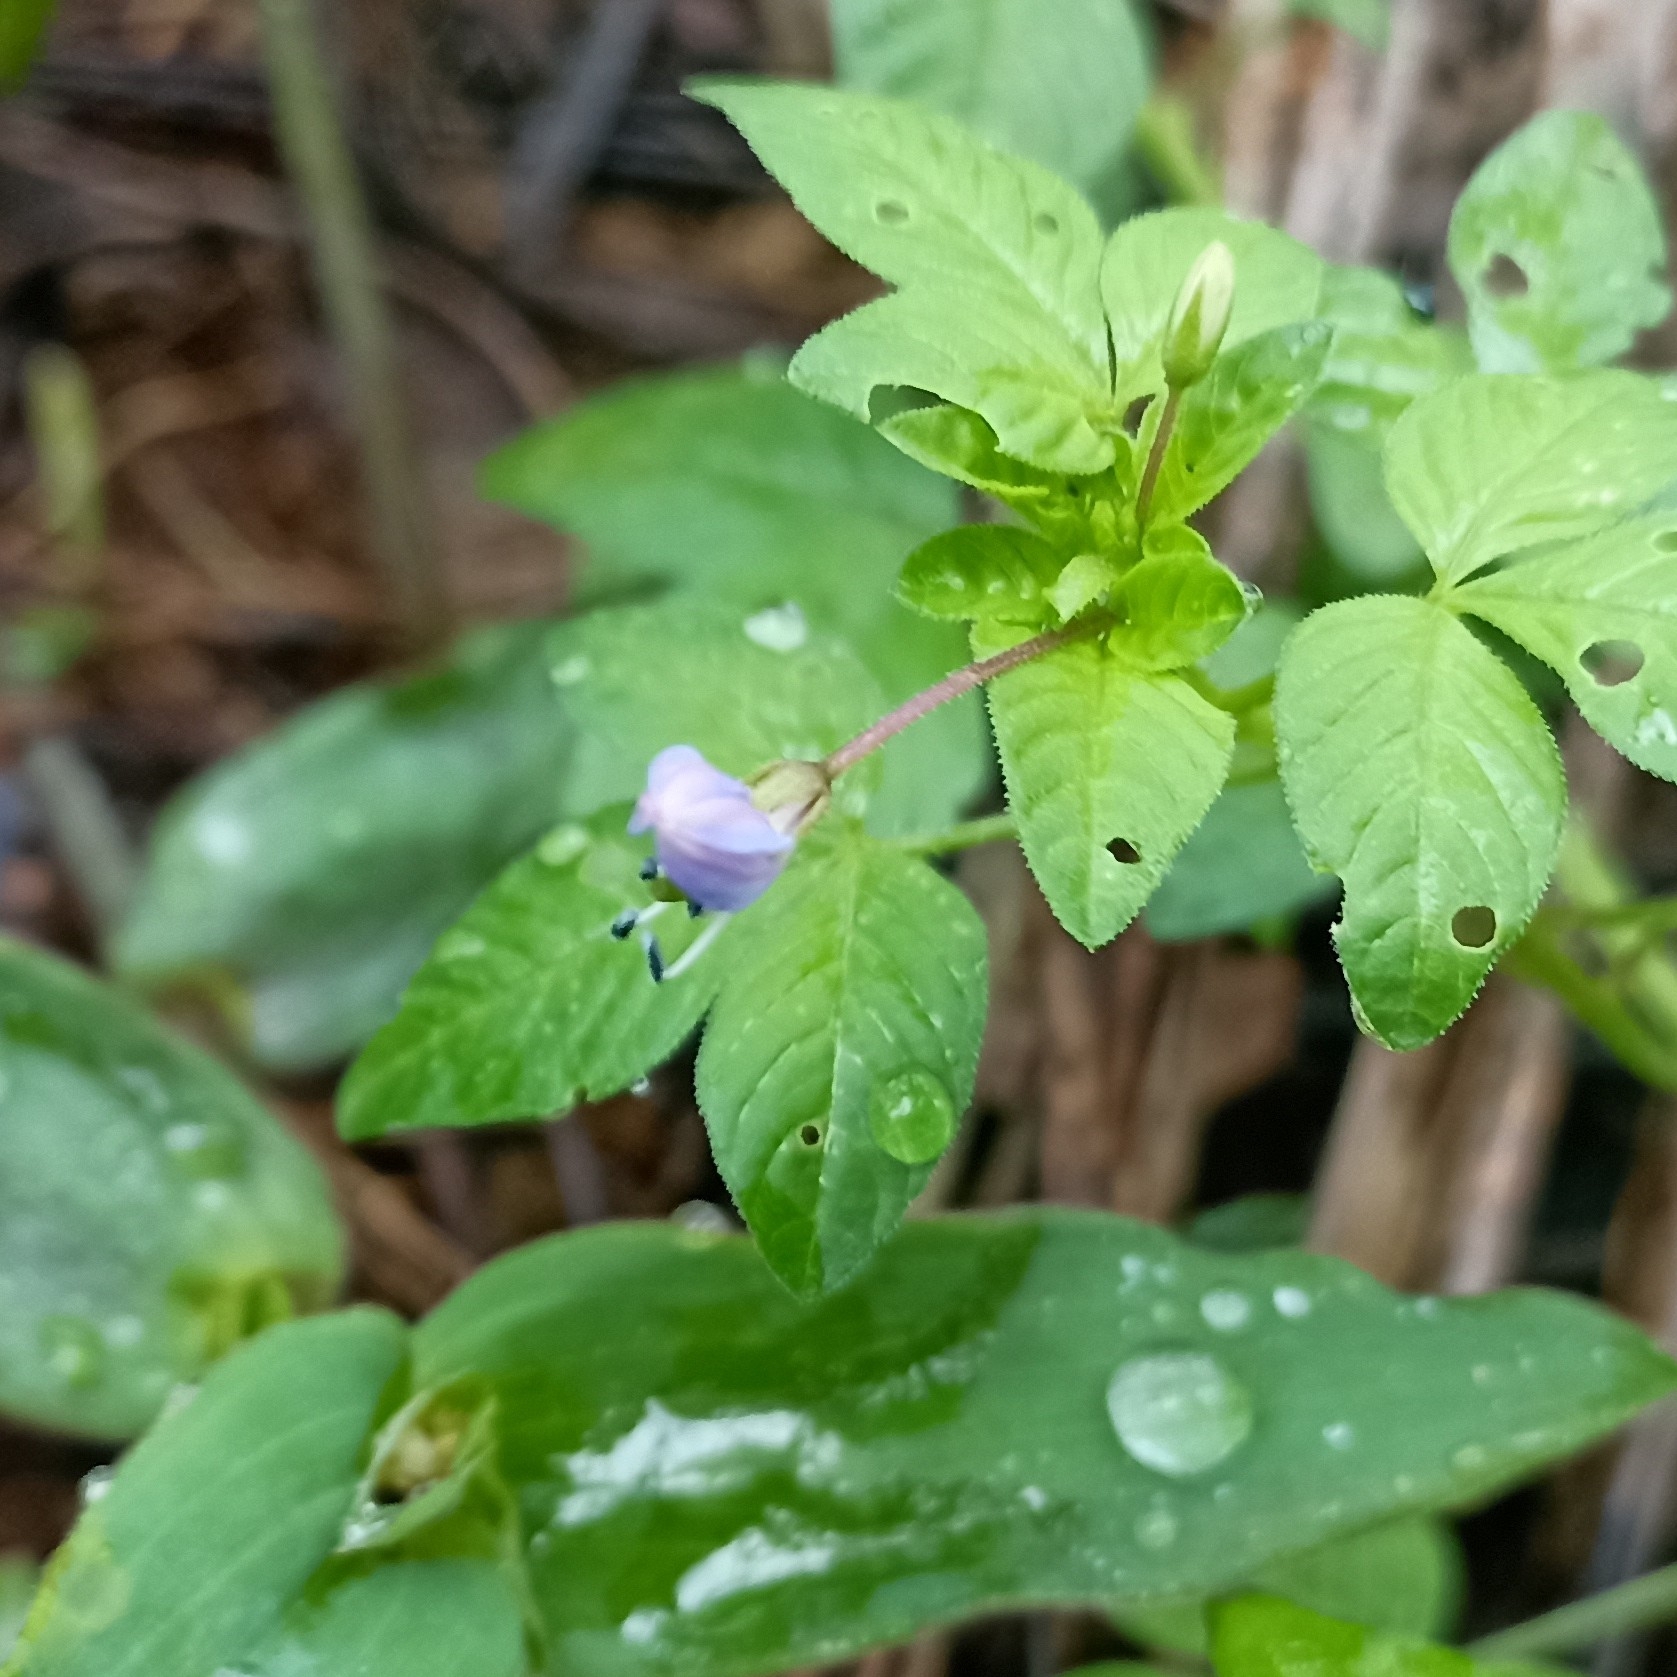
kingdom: Plantae
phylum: Tracheophyta
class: Magnoliopsida
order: Brassicales
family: Cleomaceae
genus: Sieruela
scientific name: Sieruela rutidosperma
